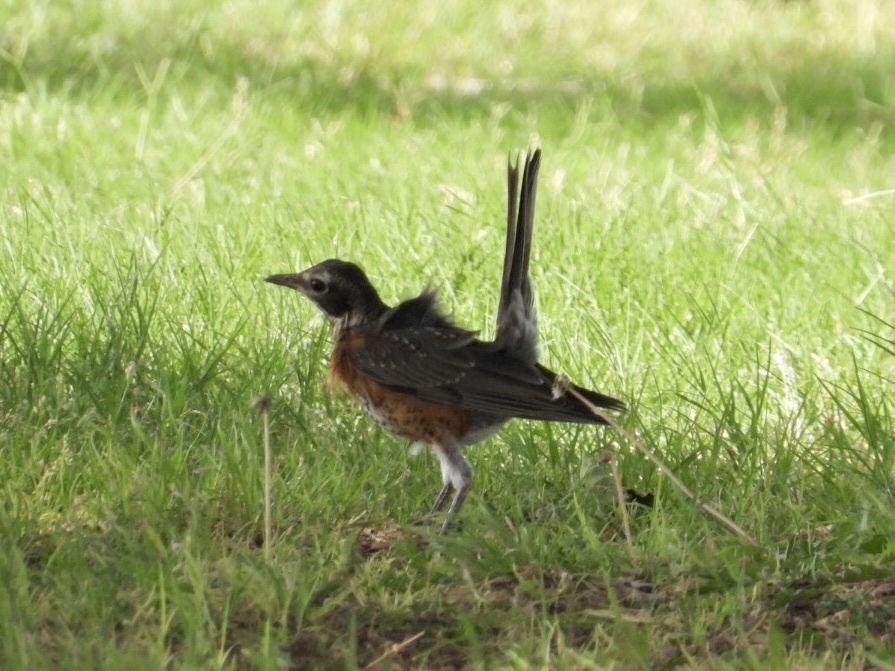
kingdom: Animalia
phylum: Chordata
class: Aves
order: Passeriformes
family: Turdidae
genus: Turdus
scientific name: Turdus migratorius
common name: American robin
